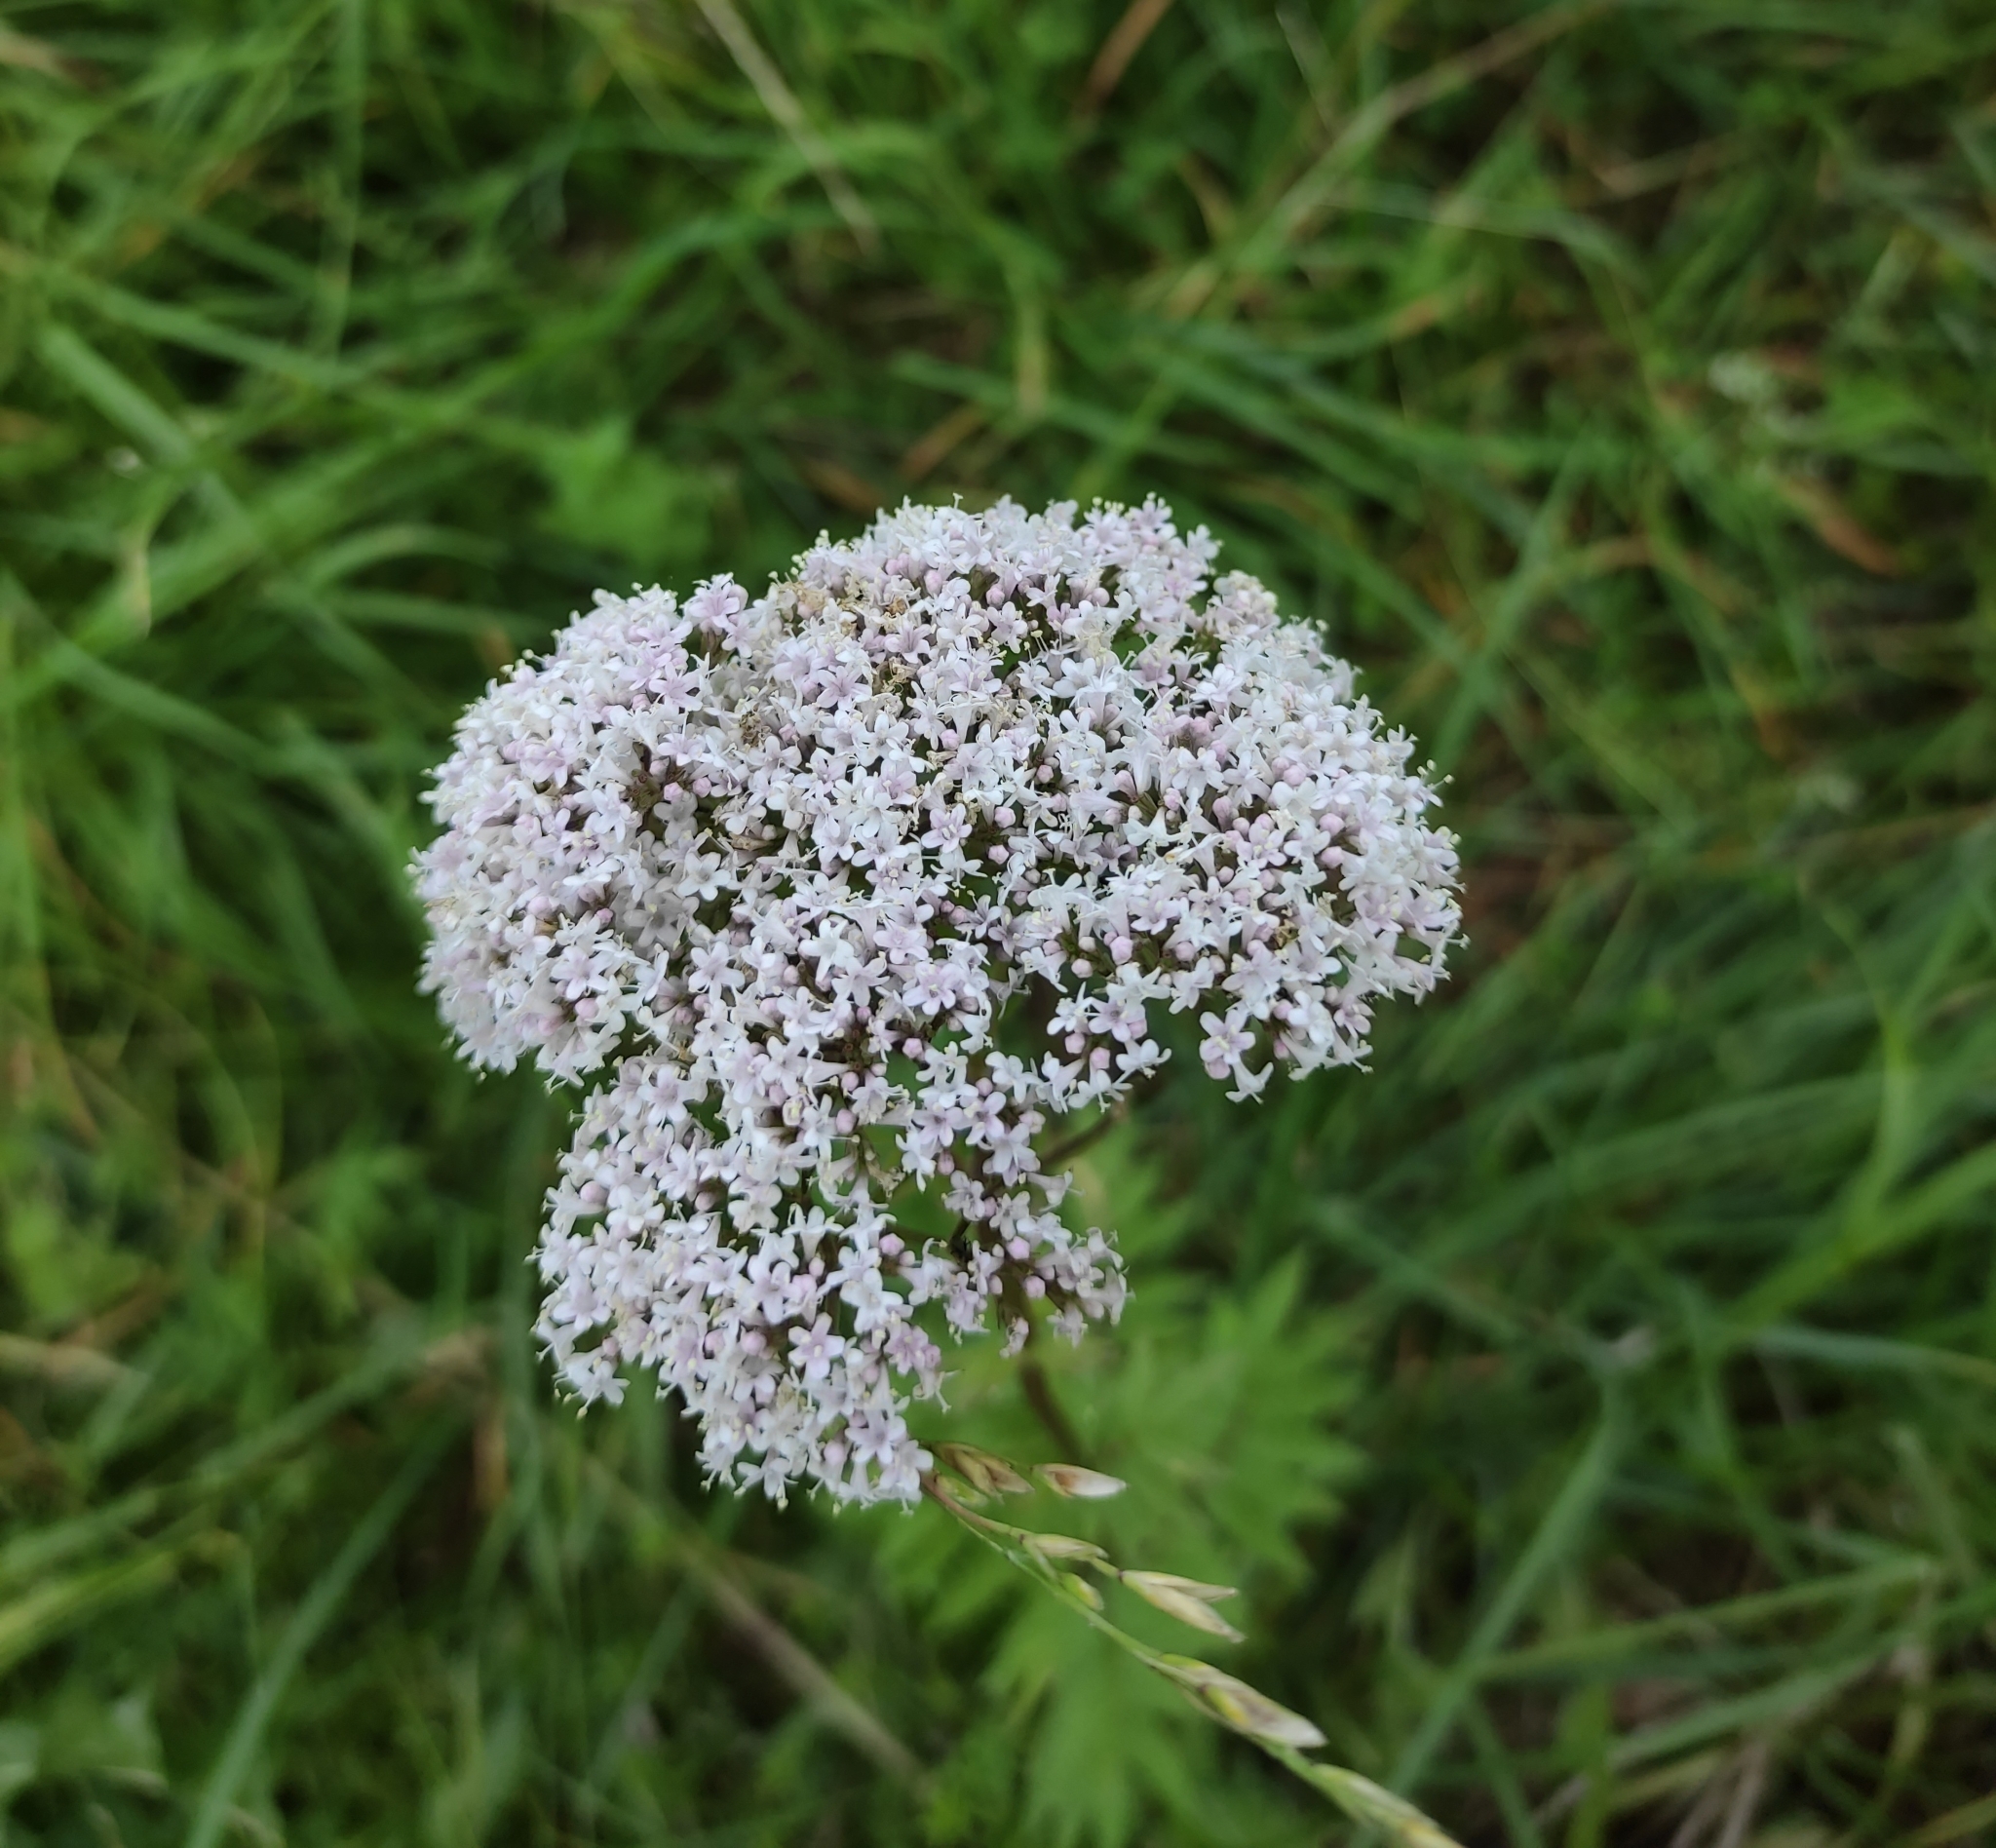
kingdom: Plantae
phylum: Tracheophyta
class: Magnoliopsida
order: Dipsacales
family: Caprifoliaceae
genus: Valeriana
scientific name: Valeriana officinalis
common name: Common valerian
